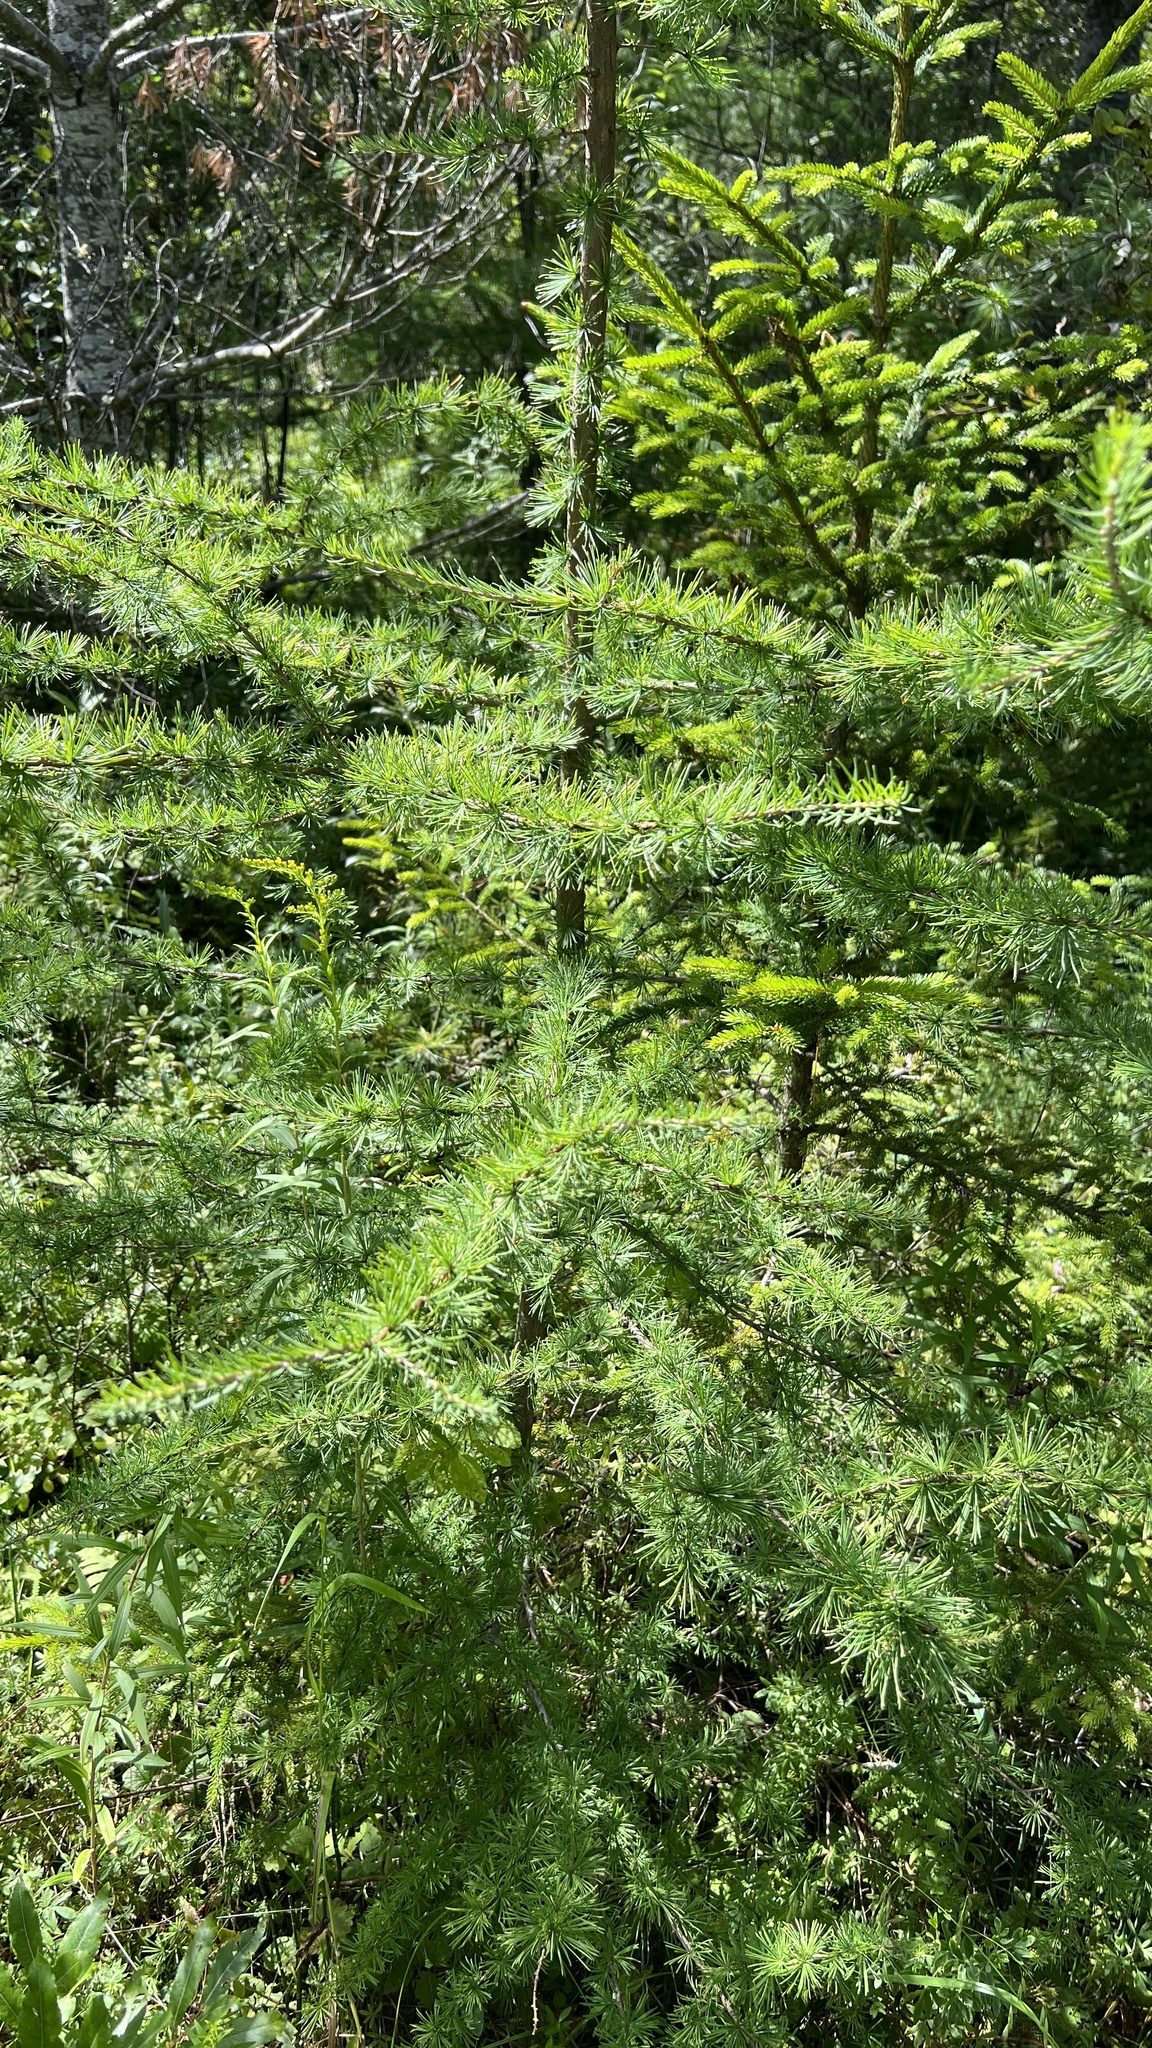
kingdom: Plantae
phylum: Tracheophyta
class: Pinopsida
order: Pinales
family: Pinaceae
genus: Larix
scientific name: Larix laricina
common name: American larch
